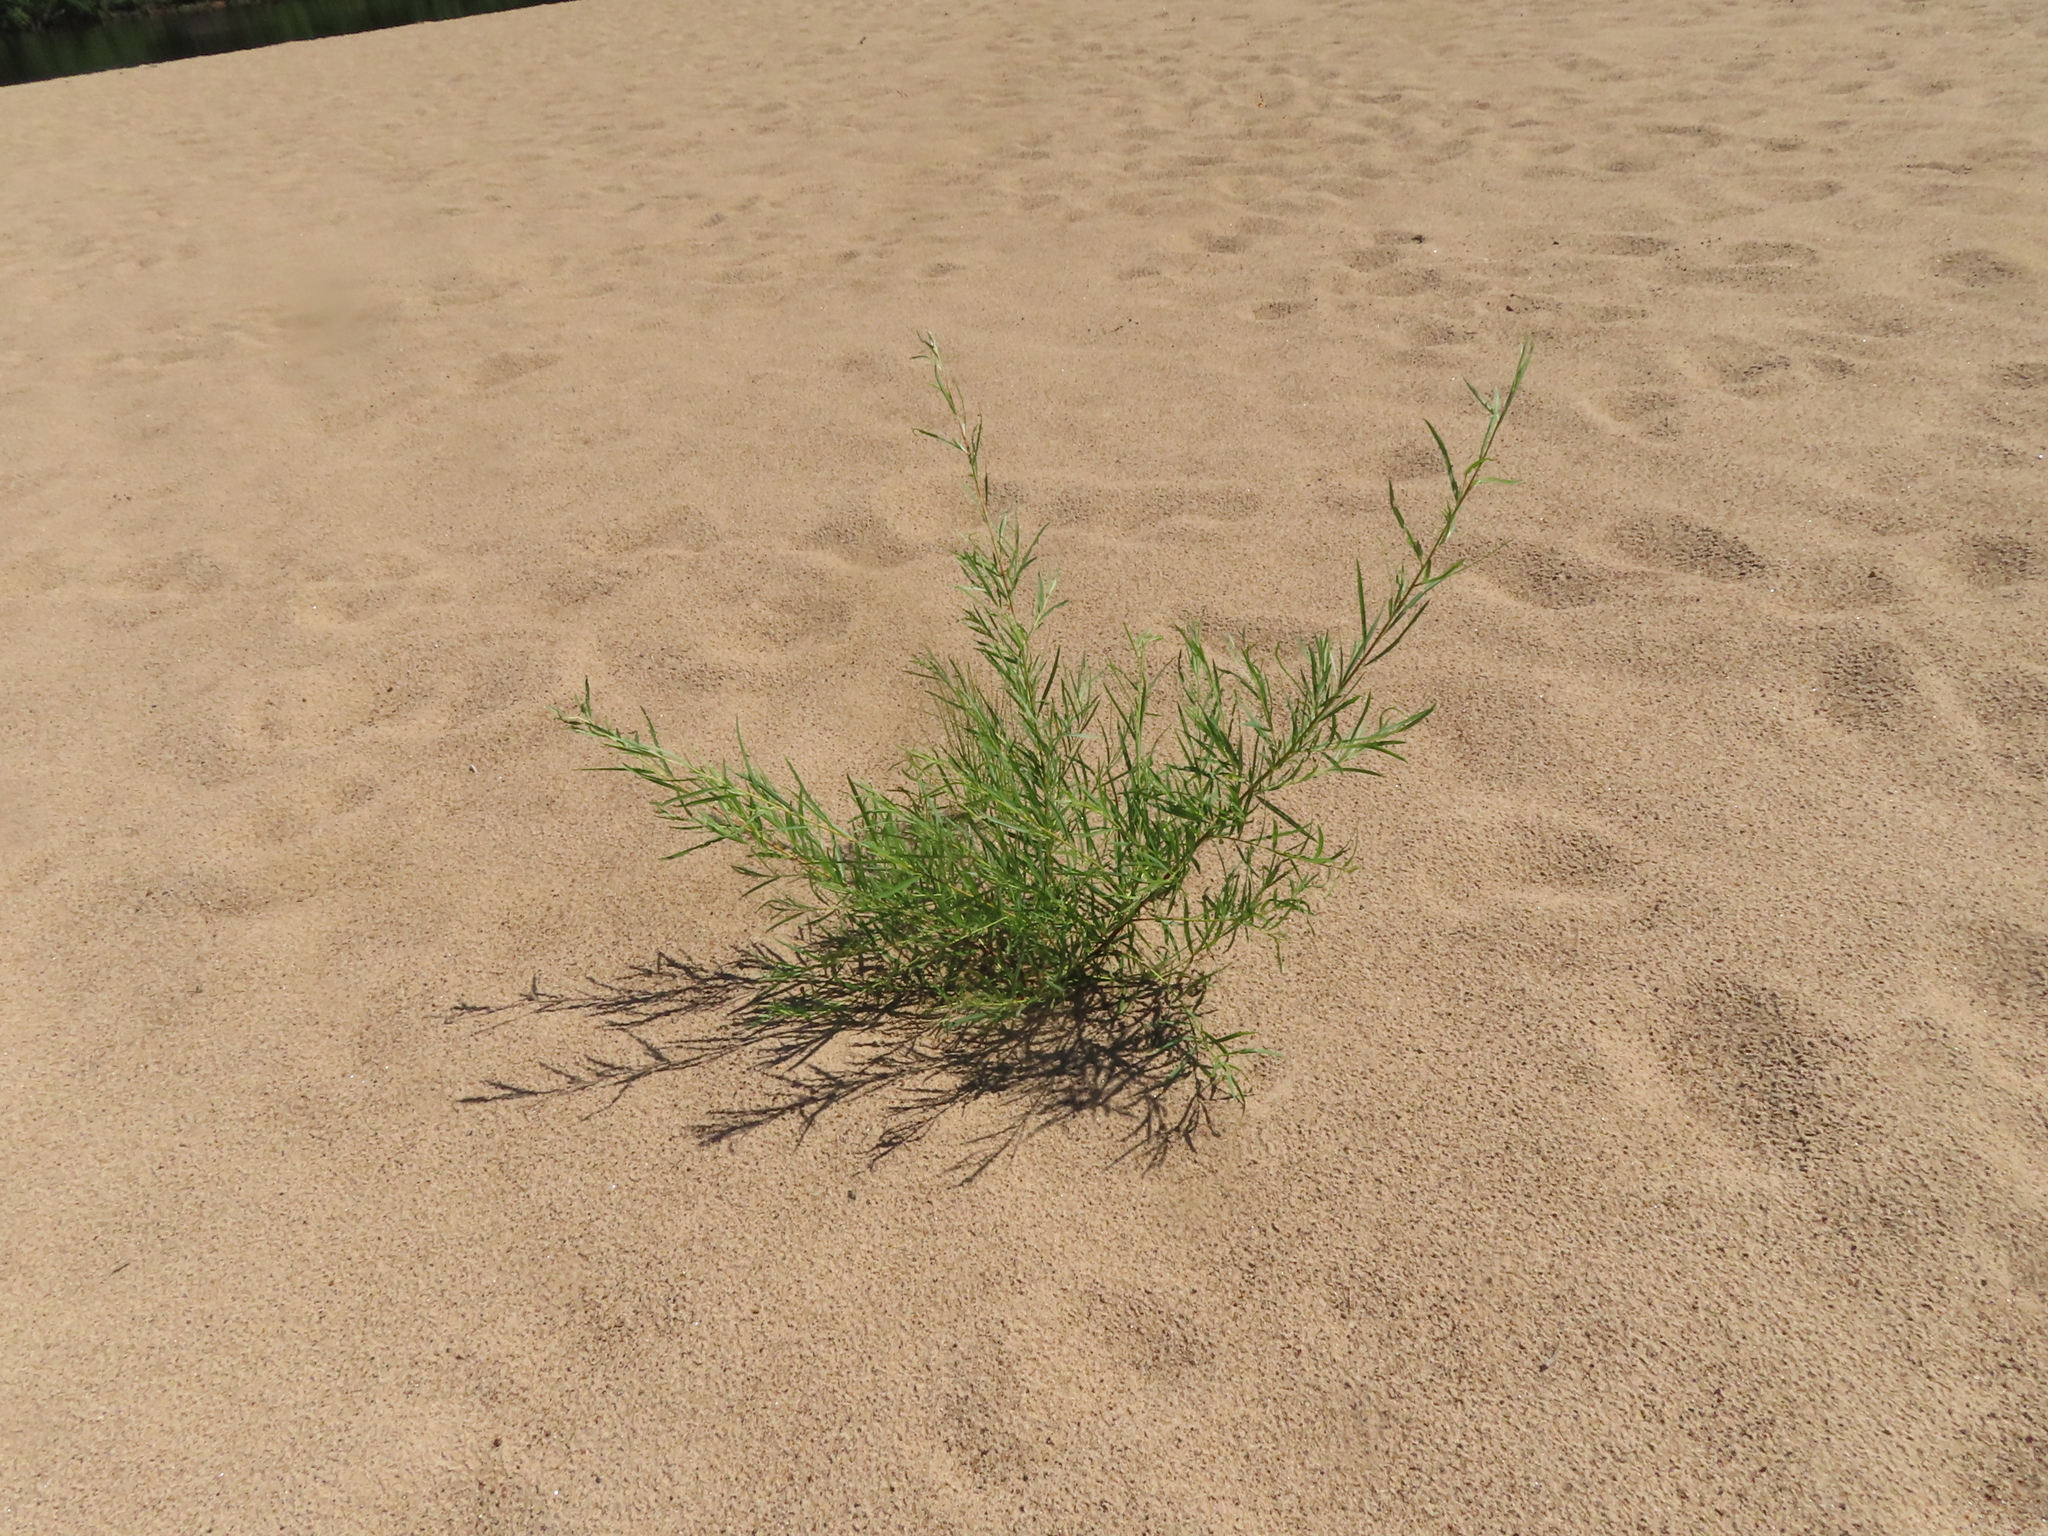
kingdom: Plantae
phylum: Tracheophyta
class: Magnoliopsida
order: Malpighiales
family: Salicaceae
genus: Salix
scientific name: Salix interior
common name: Sandbar willow
